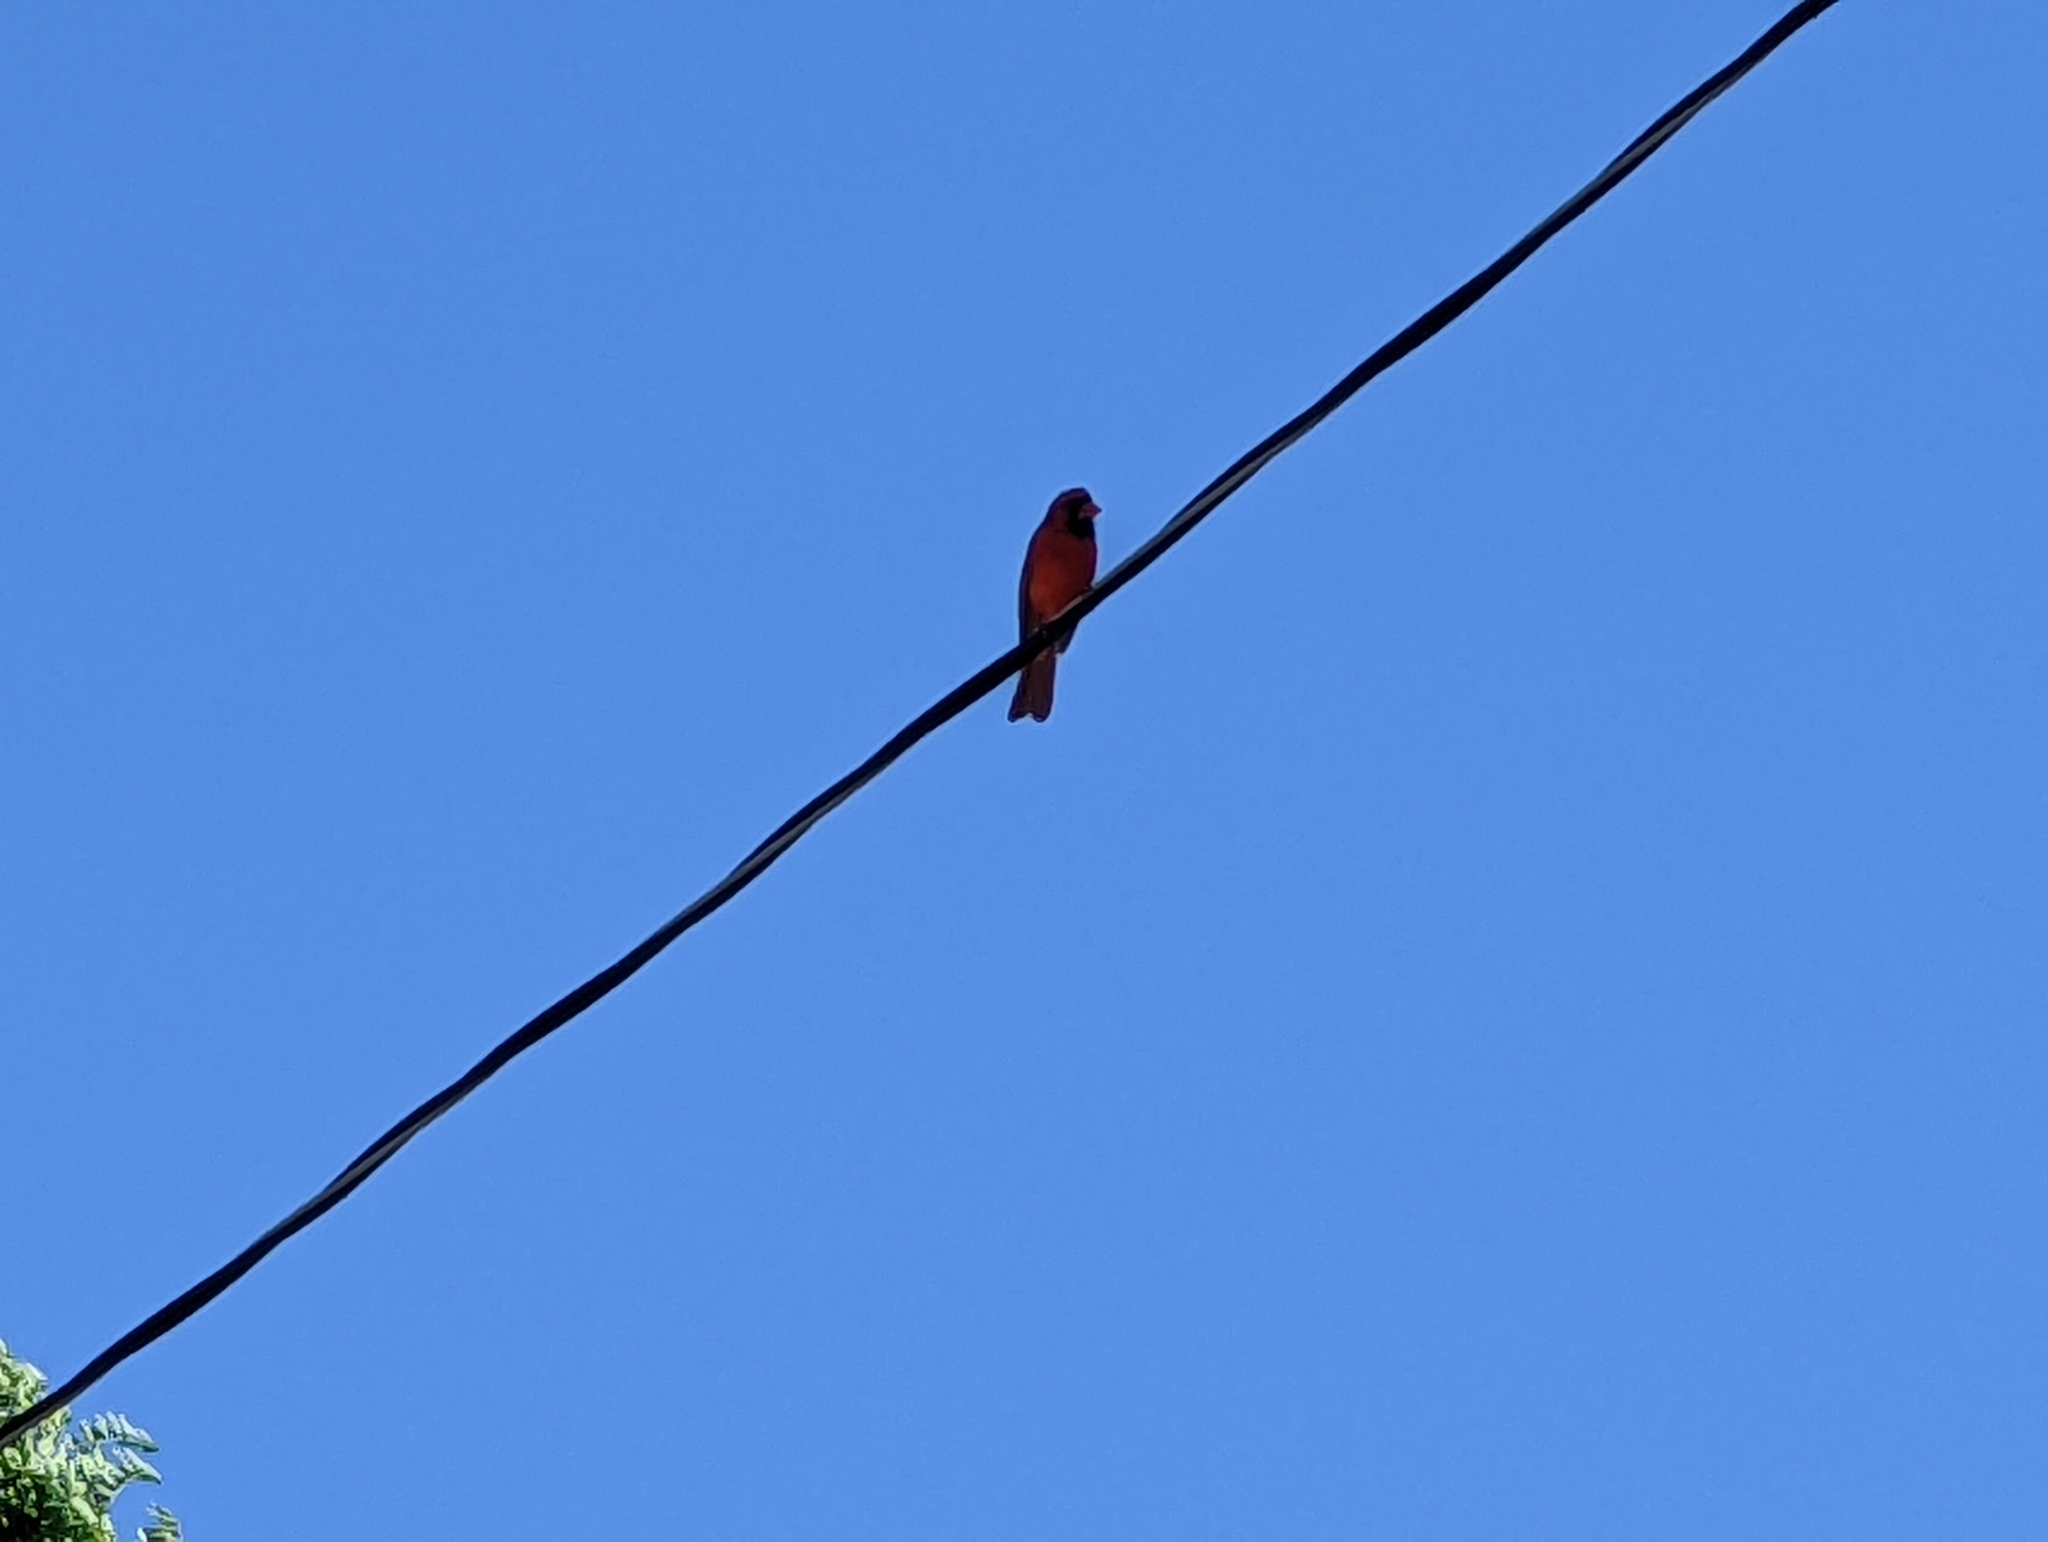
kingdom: Animalia
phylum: Chordata
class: Aves
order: Passeriformes
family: Cardinalidae
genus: Cardinalis
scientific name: Cardinalis cardinalis
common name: Northern cardinal
